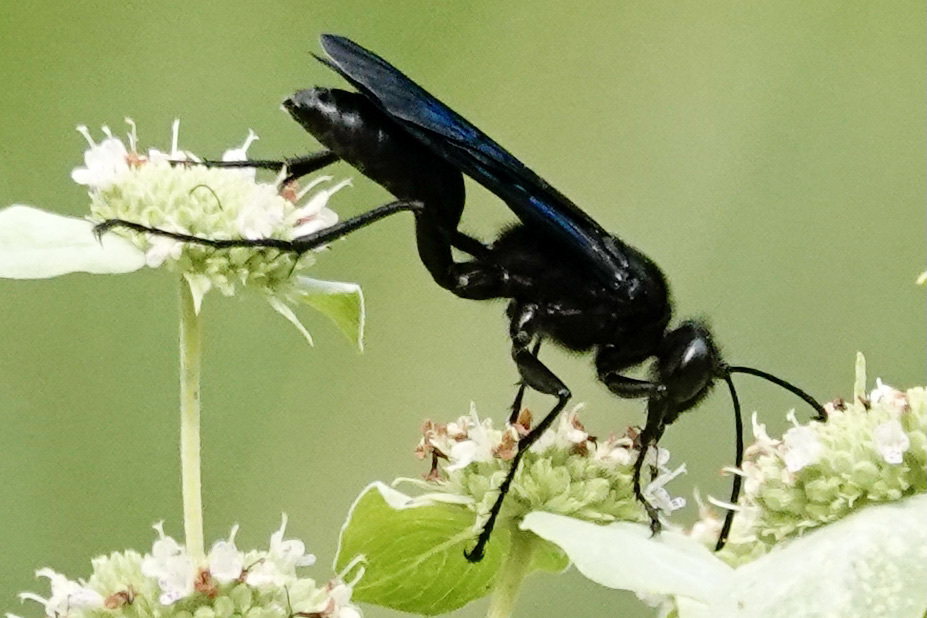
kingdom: Animalia
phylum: Arthropoda
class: Insecta
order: Hymenoptera
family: Sphecidae
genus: Sphex
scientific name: Sphex pensylvanicus
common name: Great black digger wasp
